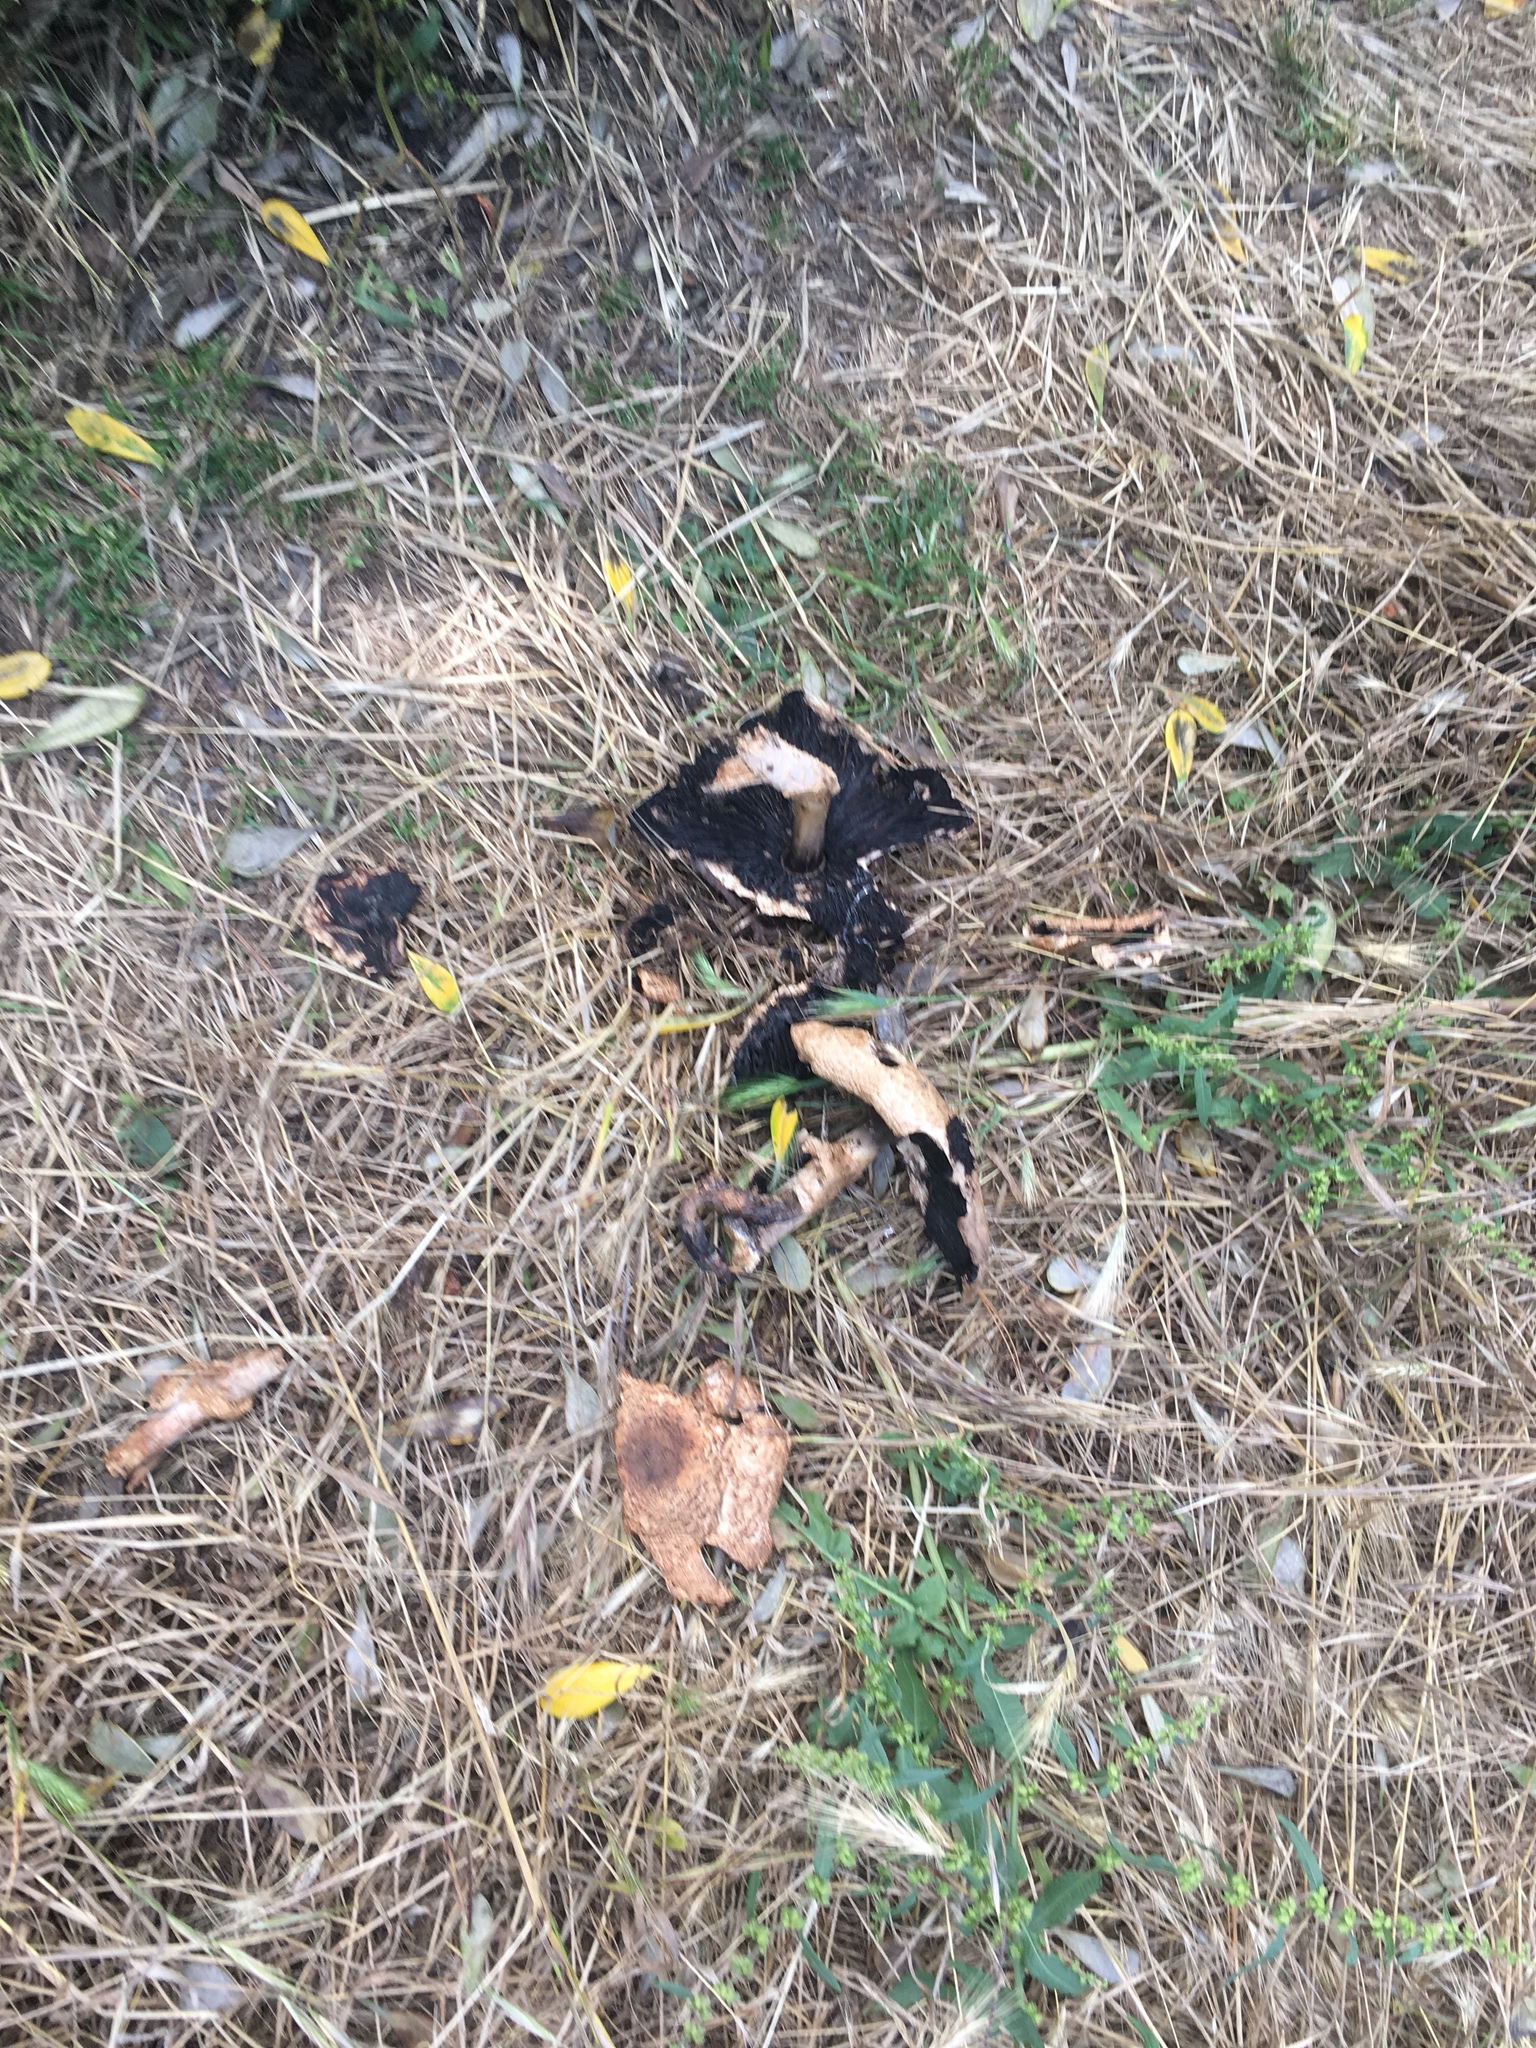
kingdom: Fungi
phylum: Basidiomycota
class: Agaricomycetes
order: Agaricales
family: Agaricaceae
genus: Agaricus
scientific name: Agaricus augustus
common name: Prince
